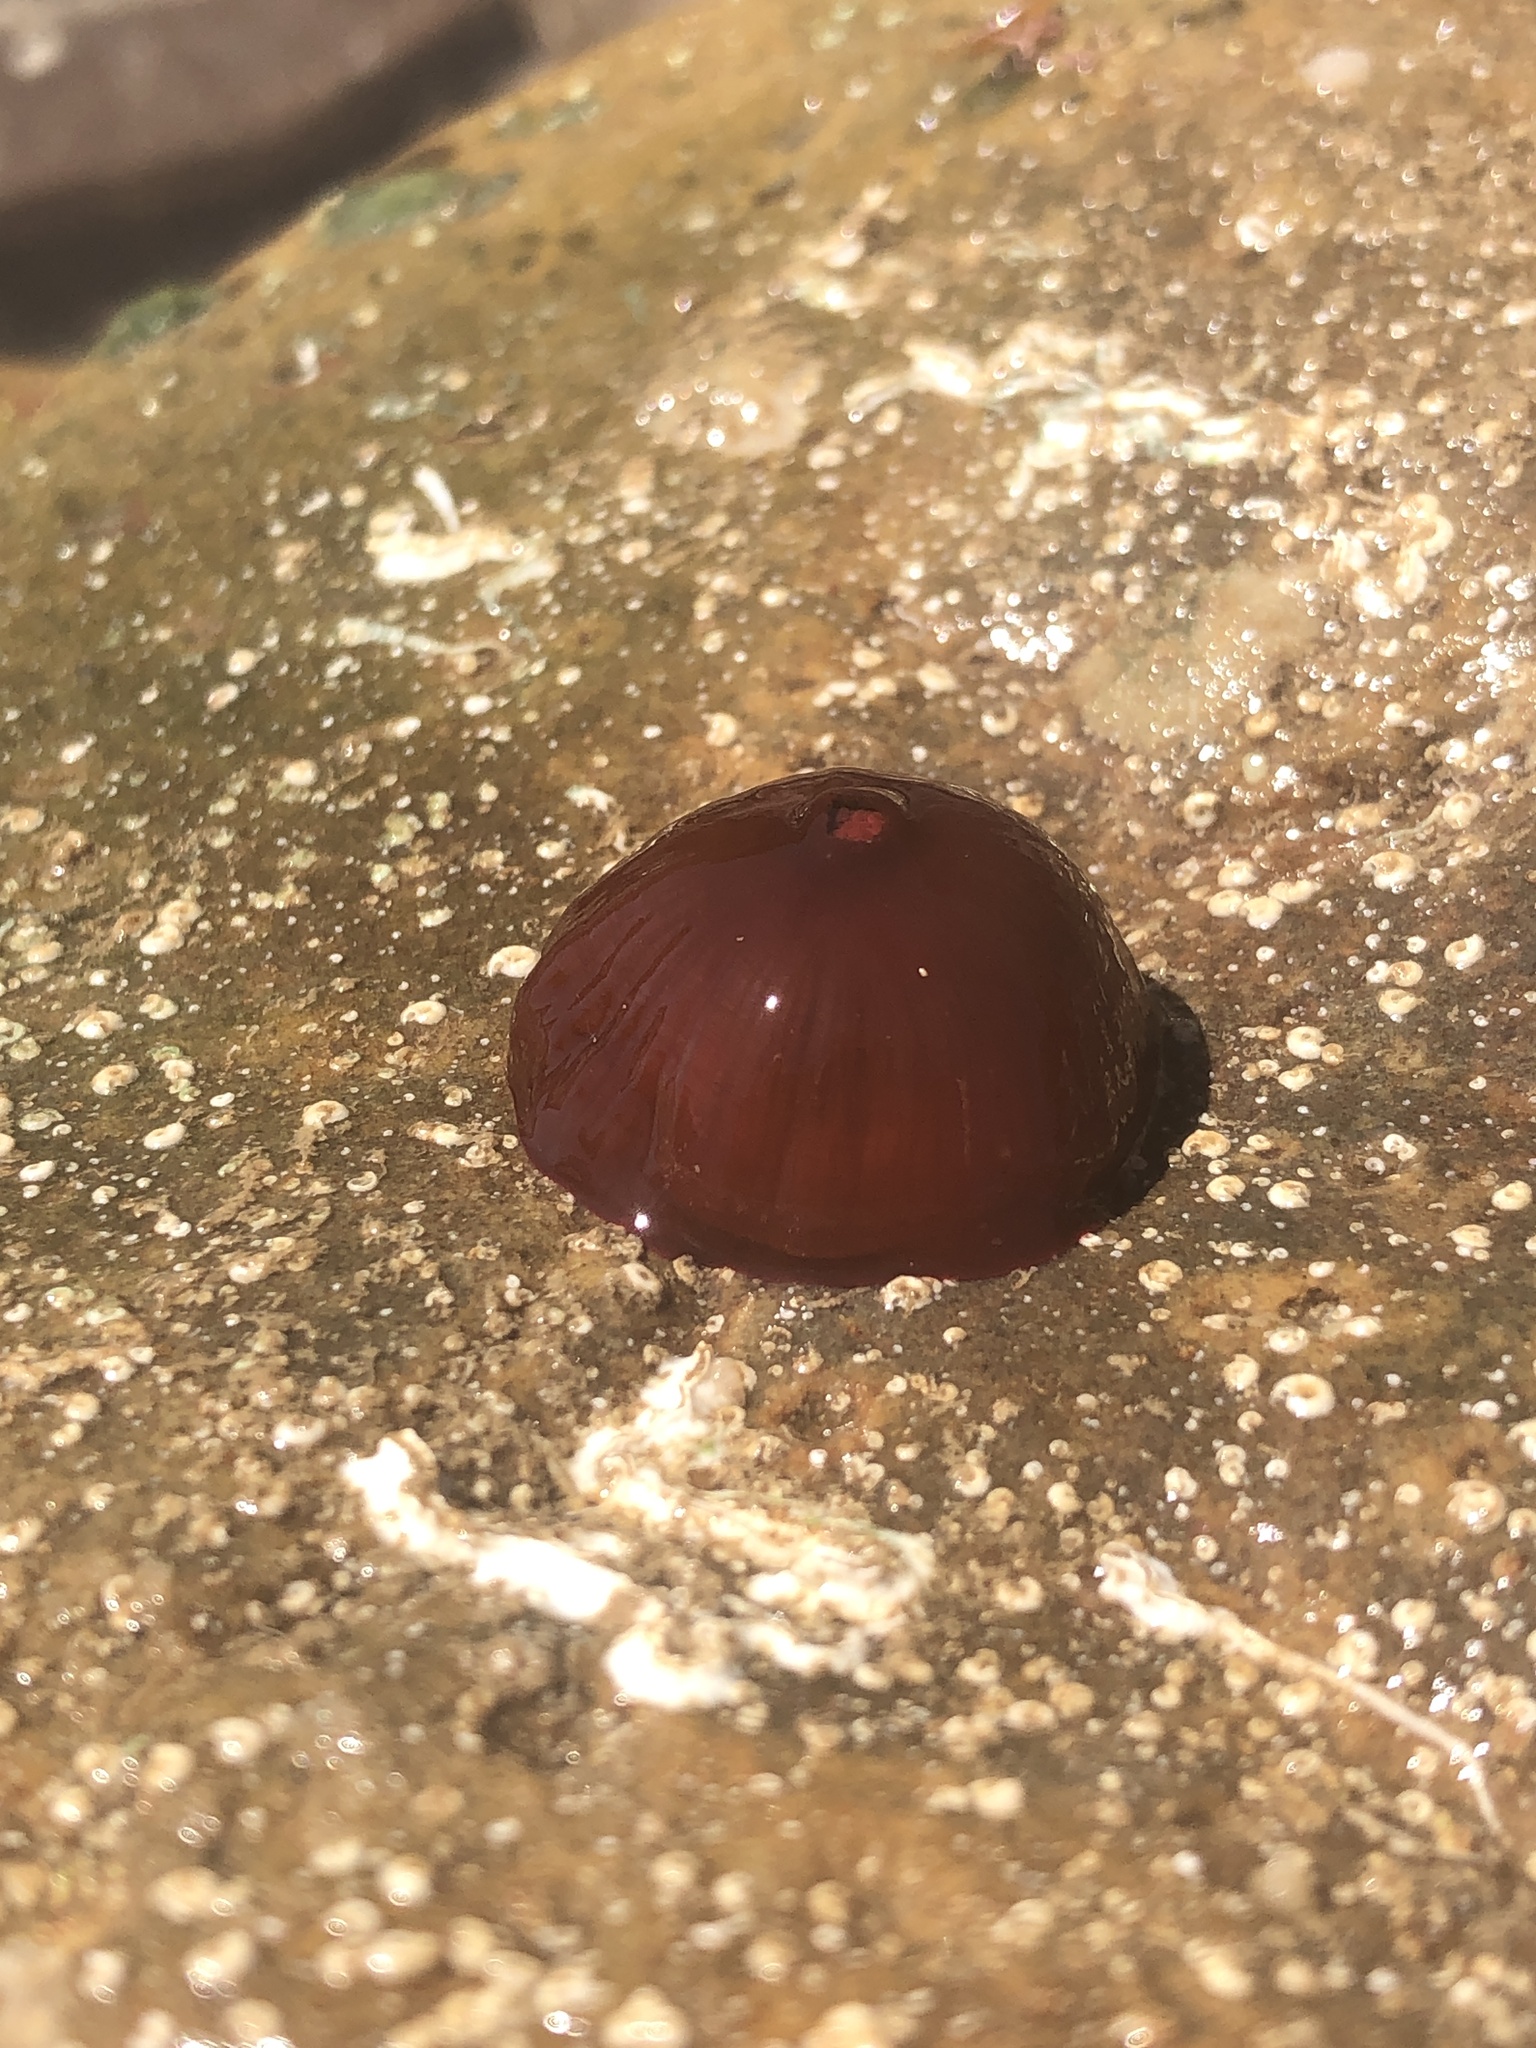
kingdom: Animalia
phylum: Cnidaria
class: Anthozoa
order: Actiniaria
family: Actiniidae
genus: Actinia
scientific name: Actinia tenebrosa
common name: Waratah anemone
